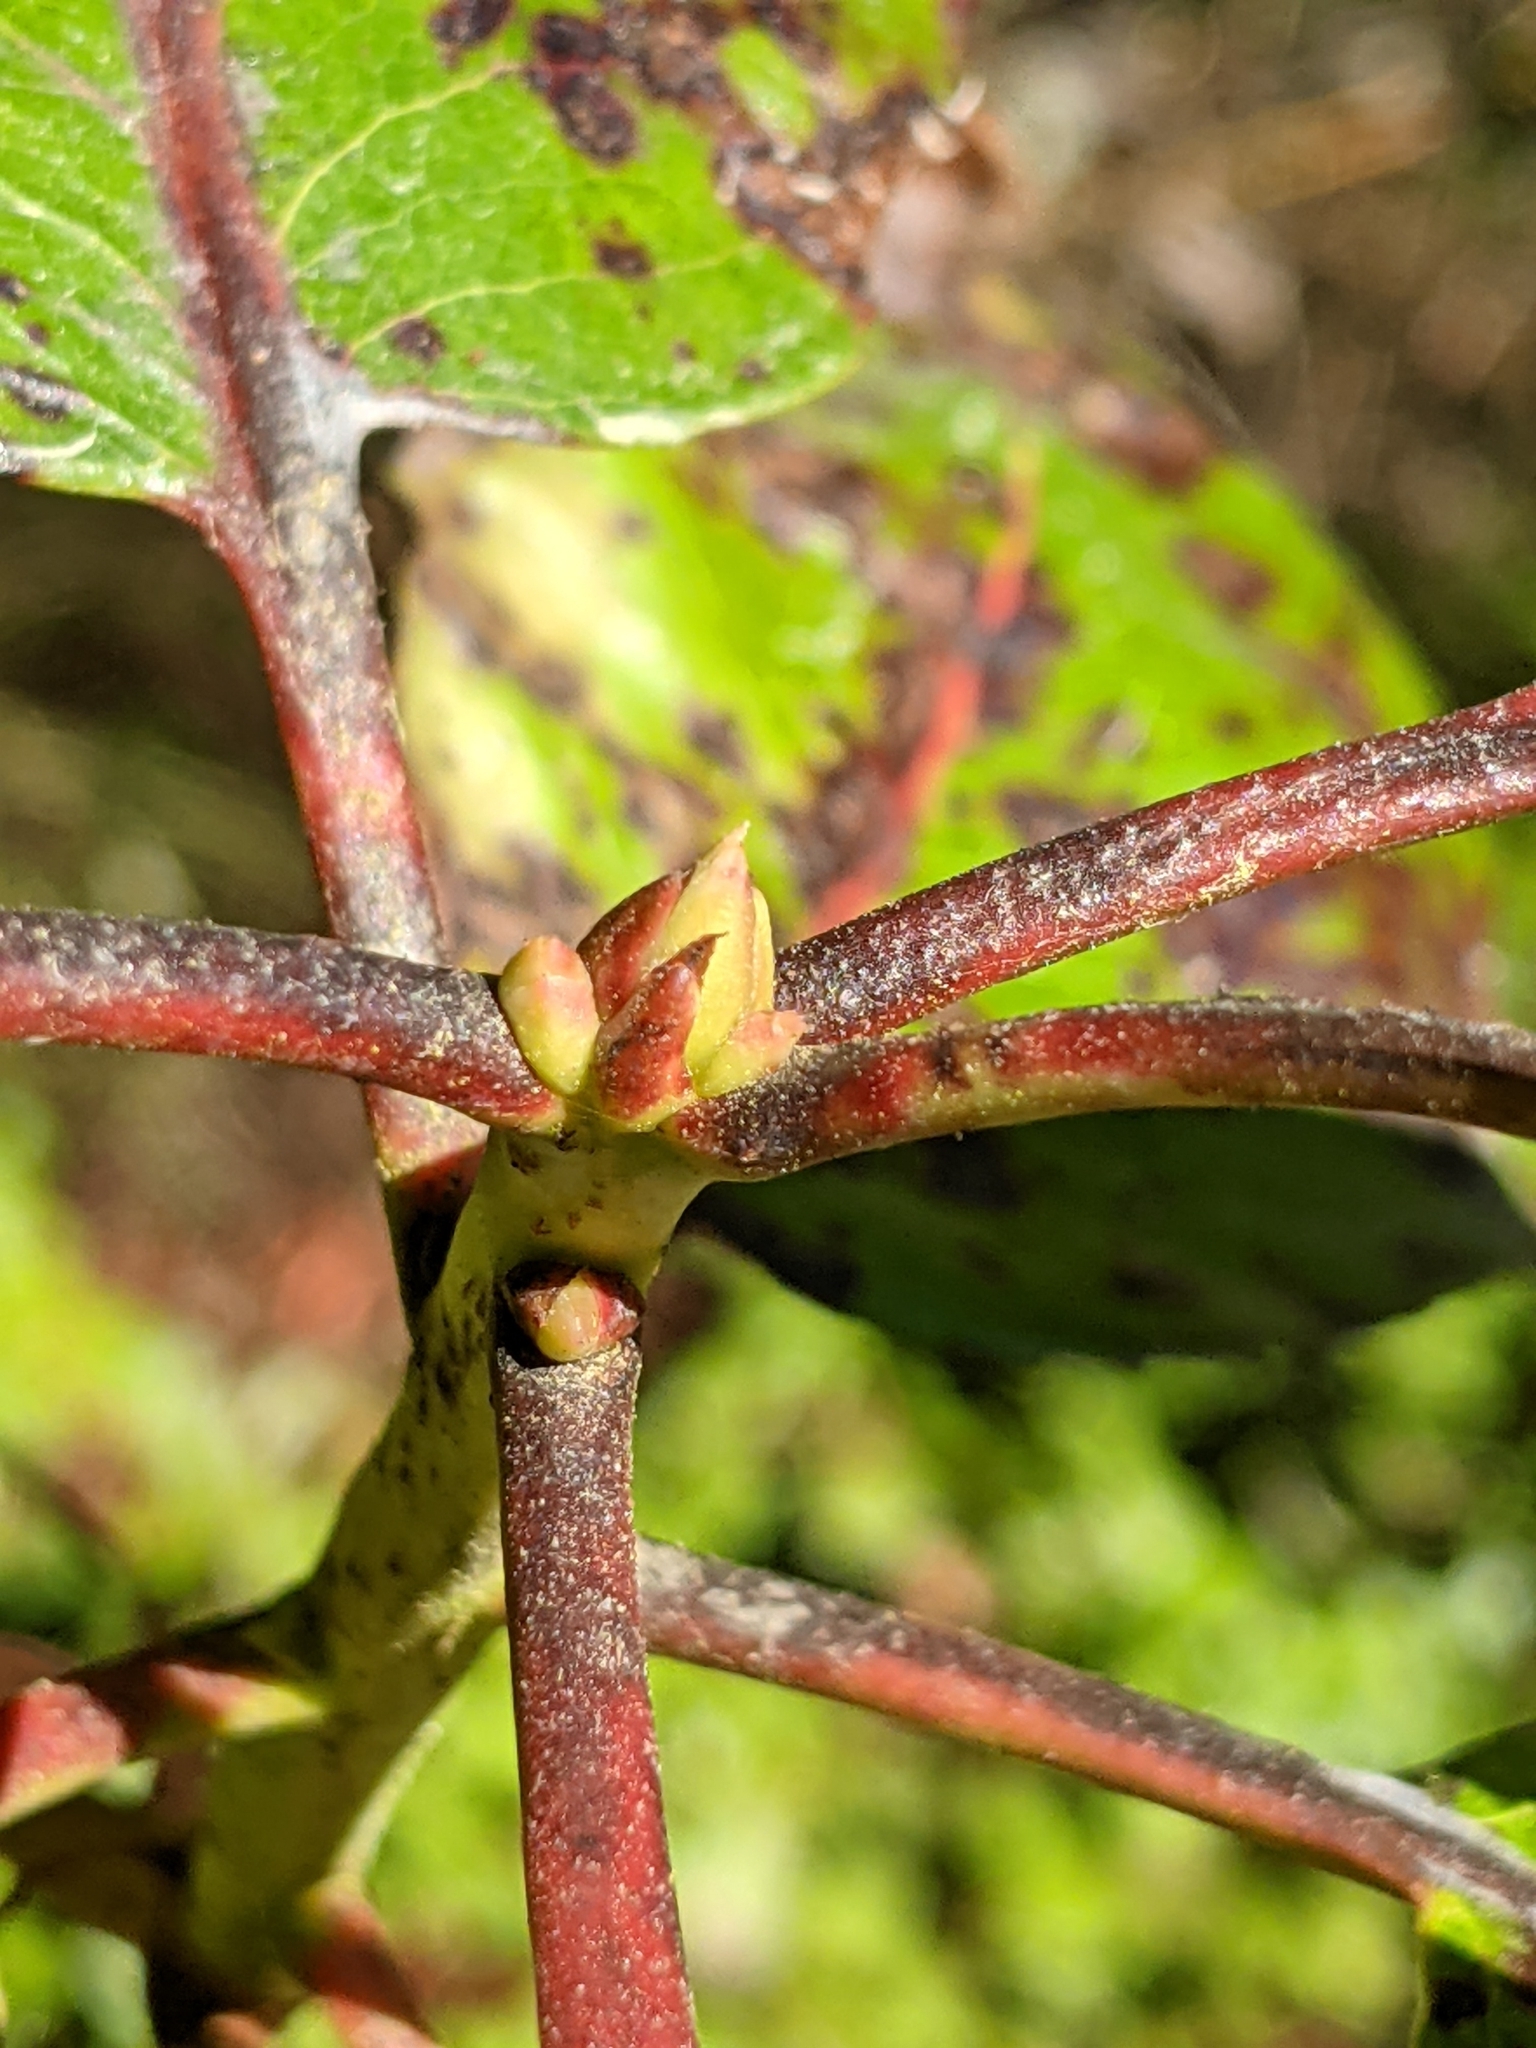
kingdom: Plantae
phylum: Tracheophyta
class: Magnoliopsida
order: Ericales
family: Ericaceae
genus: Arbutus
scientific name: Arbutus menziesii
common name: Pacific madrone
